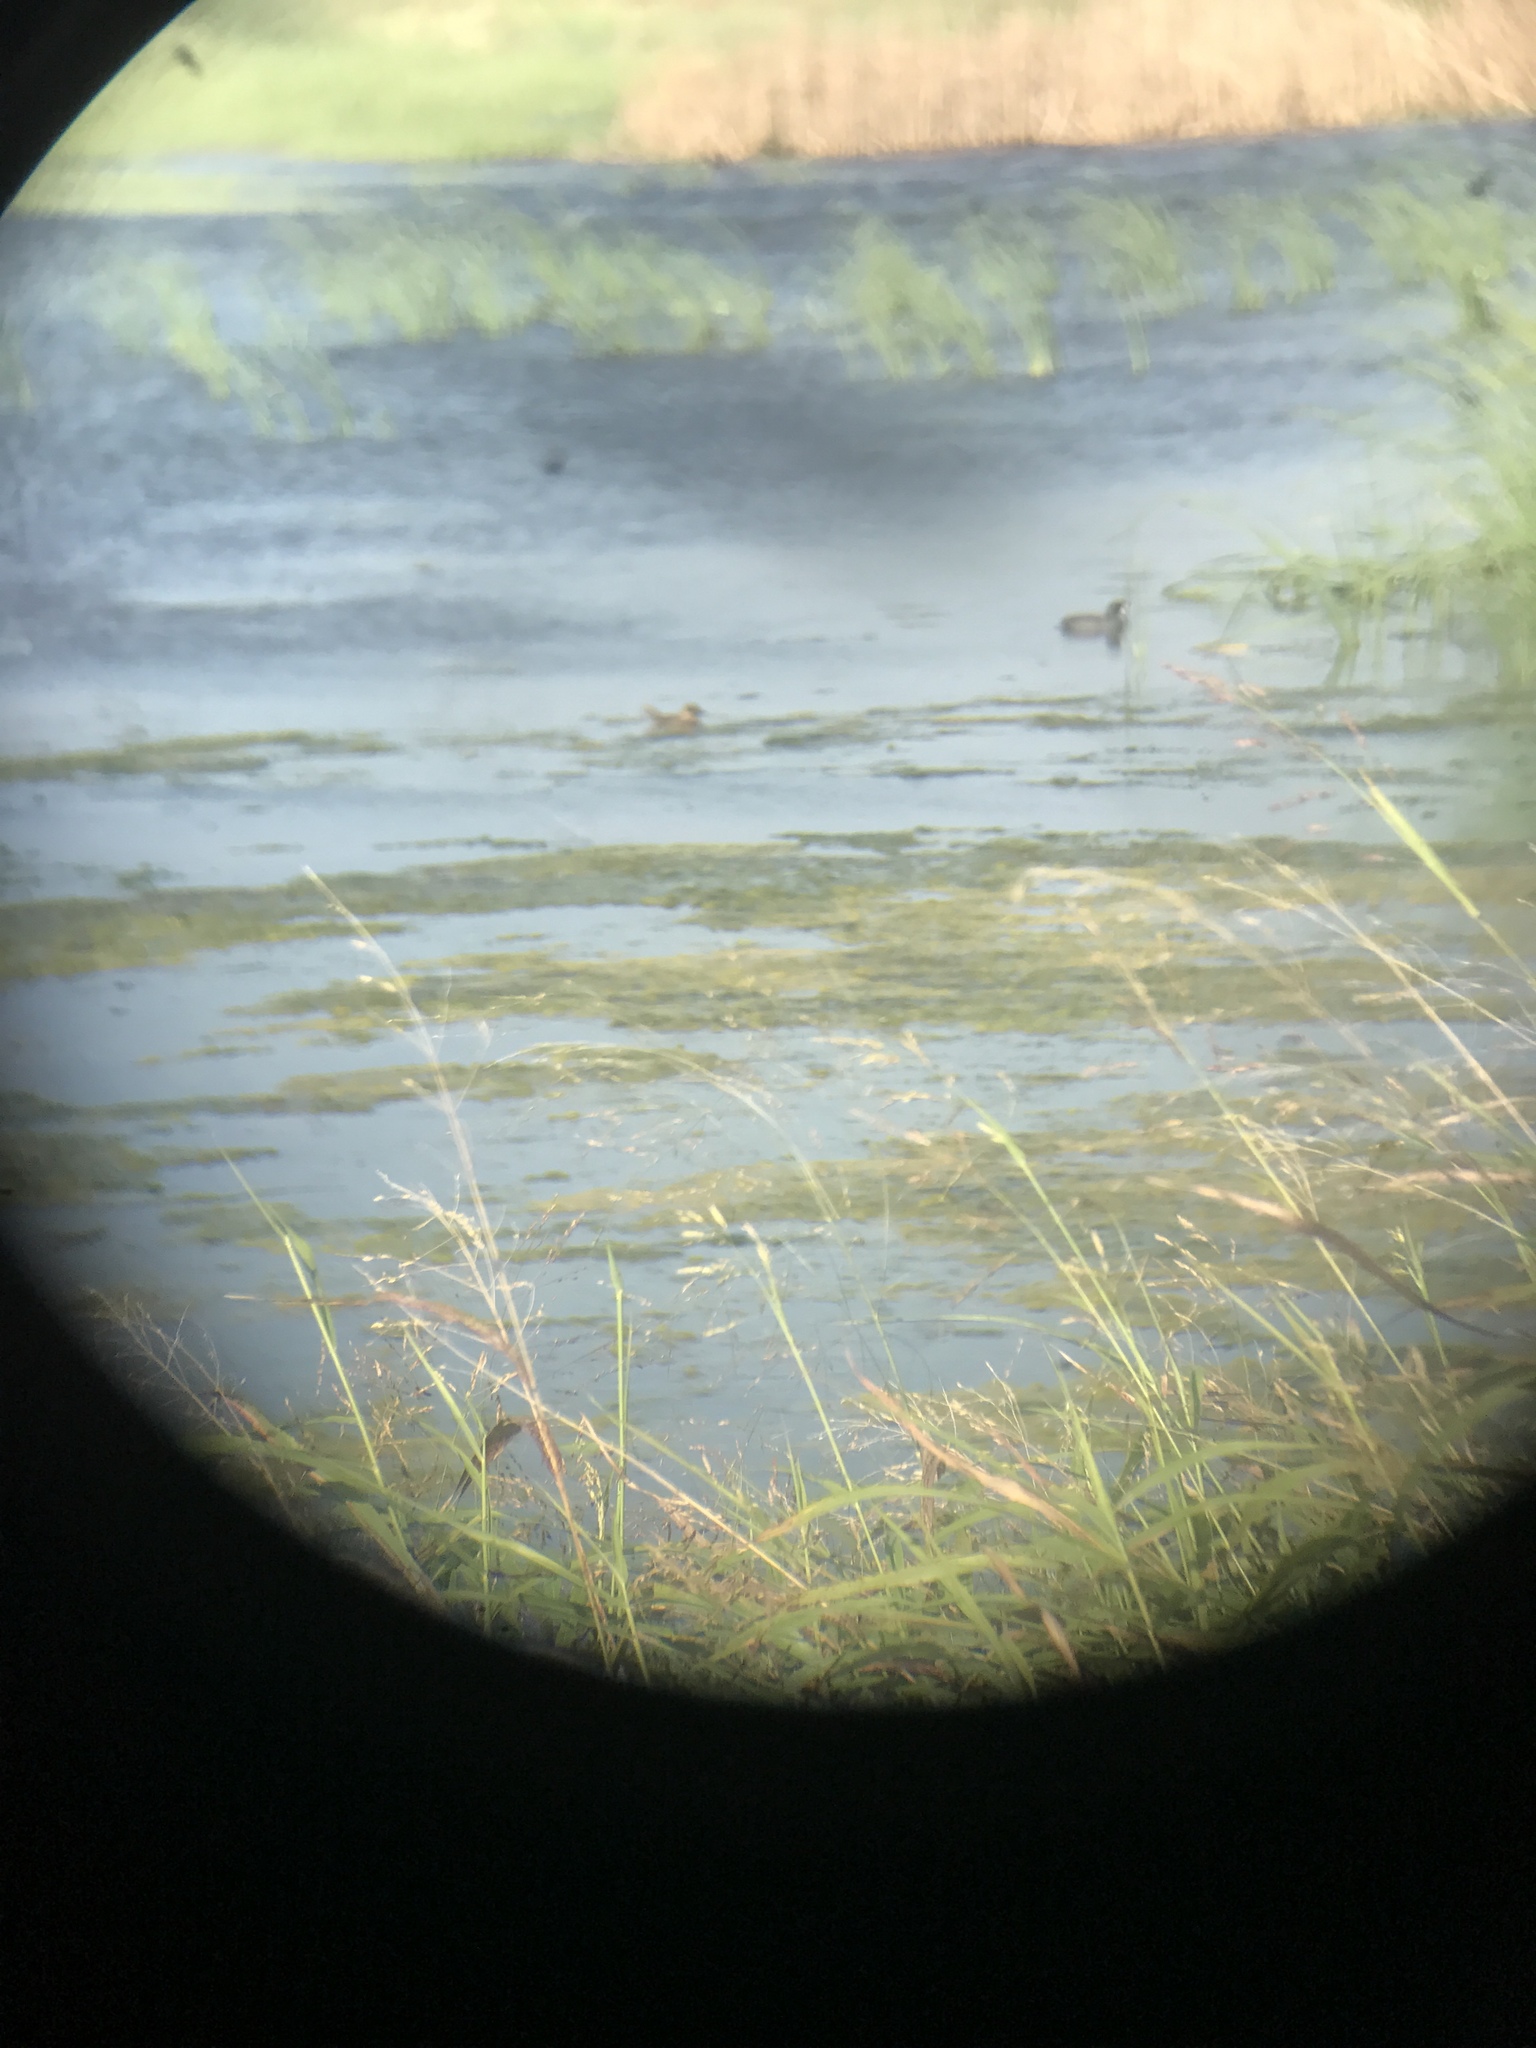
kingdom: Animalia
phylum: Chordata
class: Aves
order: Anseriformes
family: Anatidae
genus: Nomonyx
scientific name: Nomonyx dominicus
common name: Masked duck
